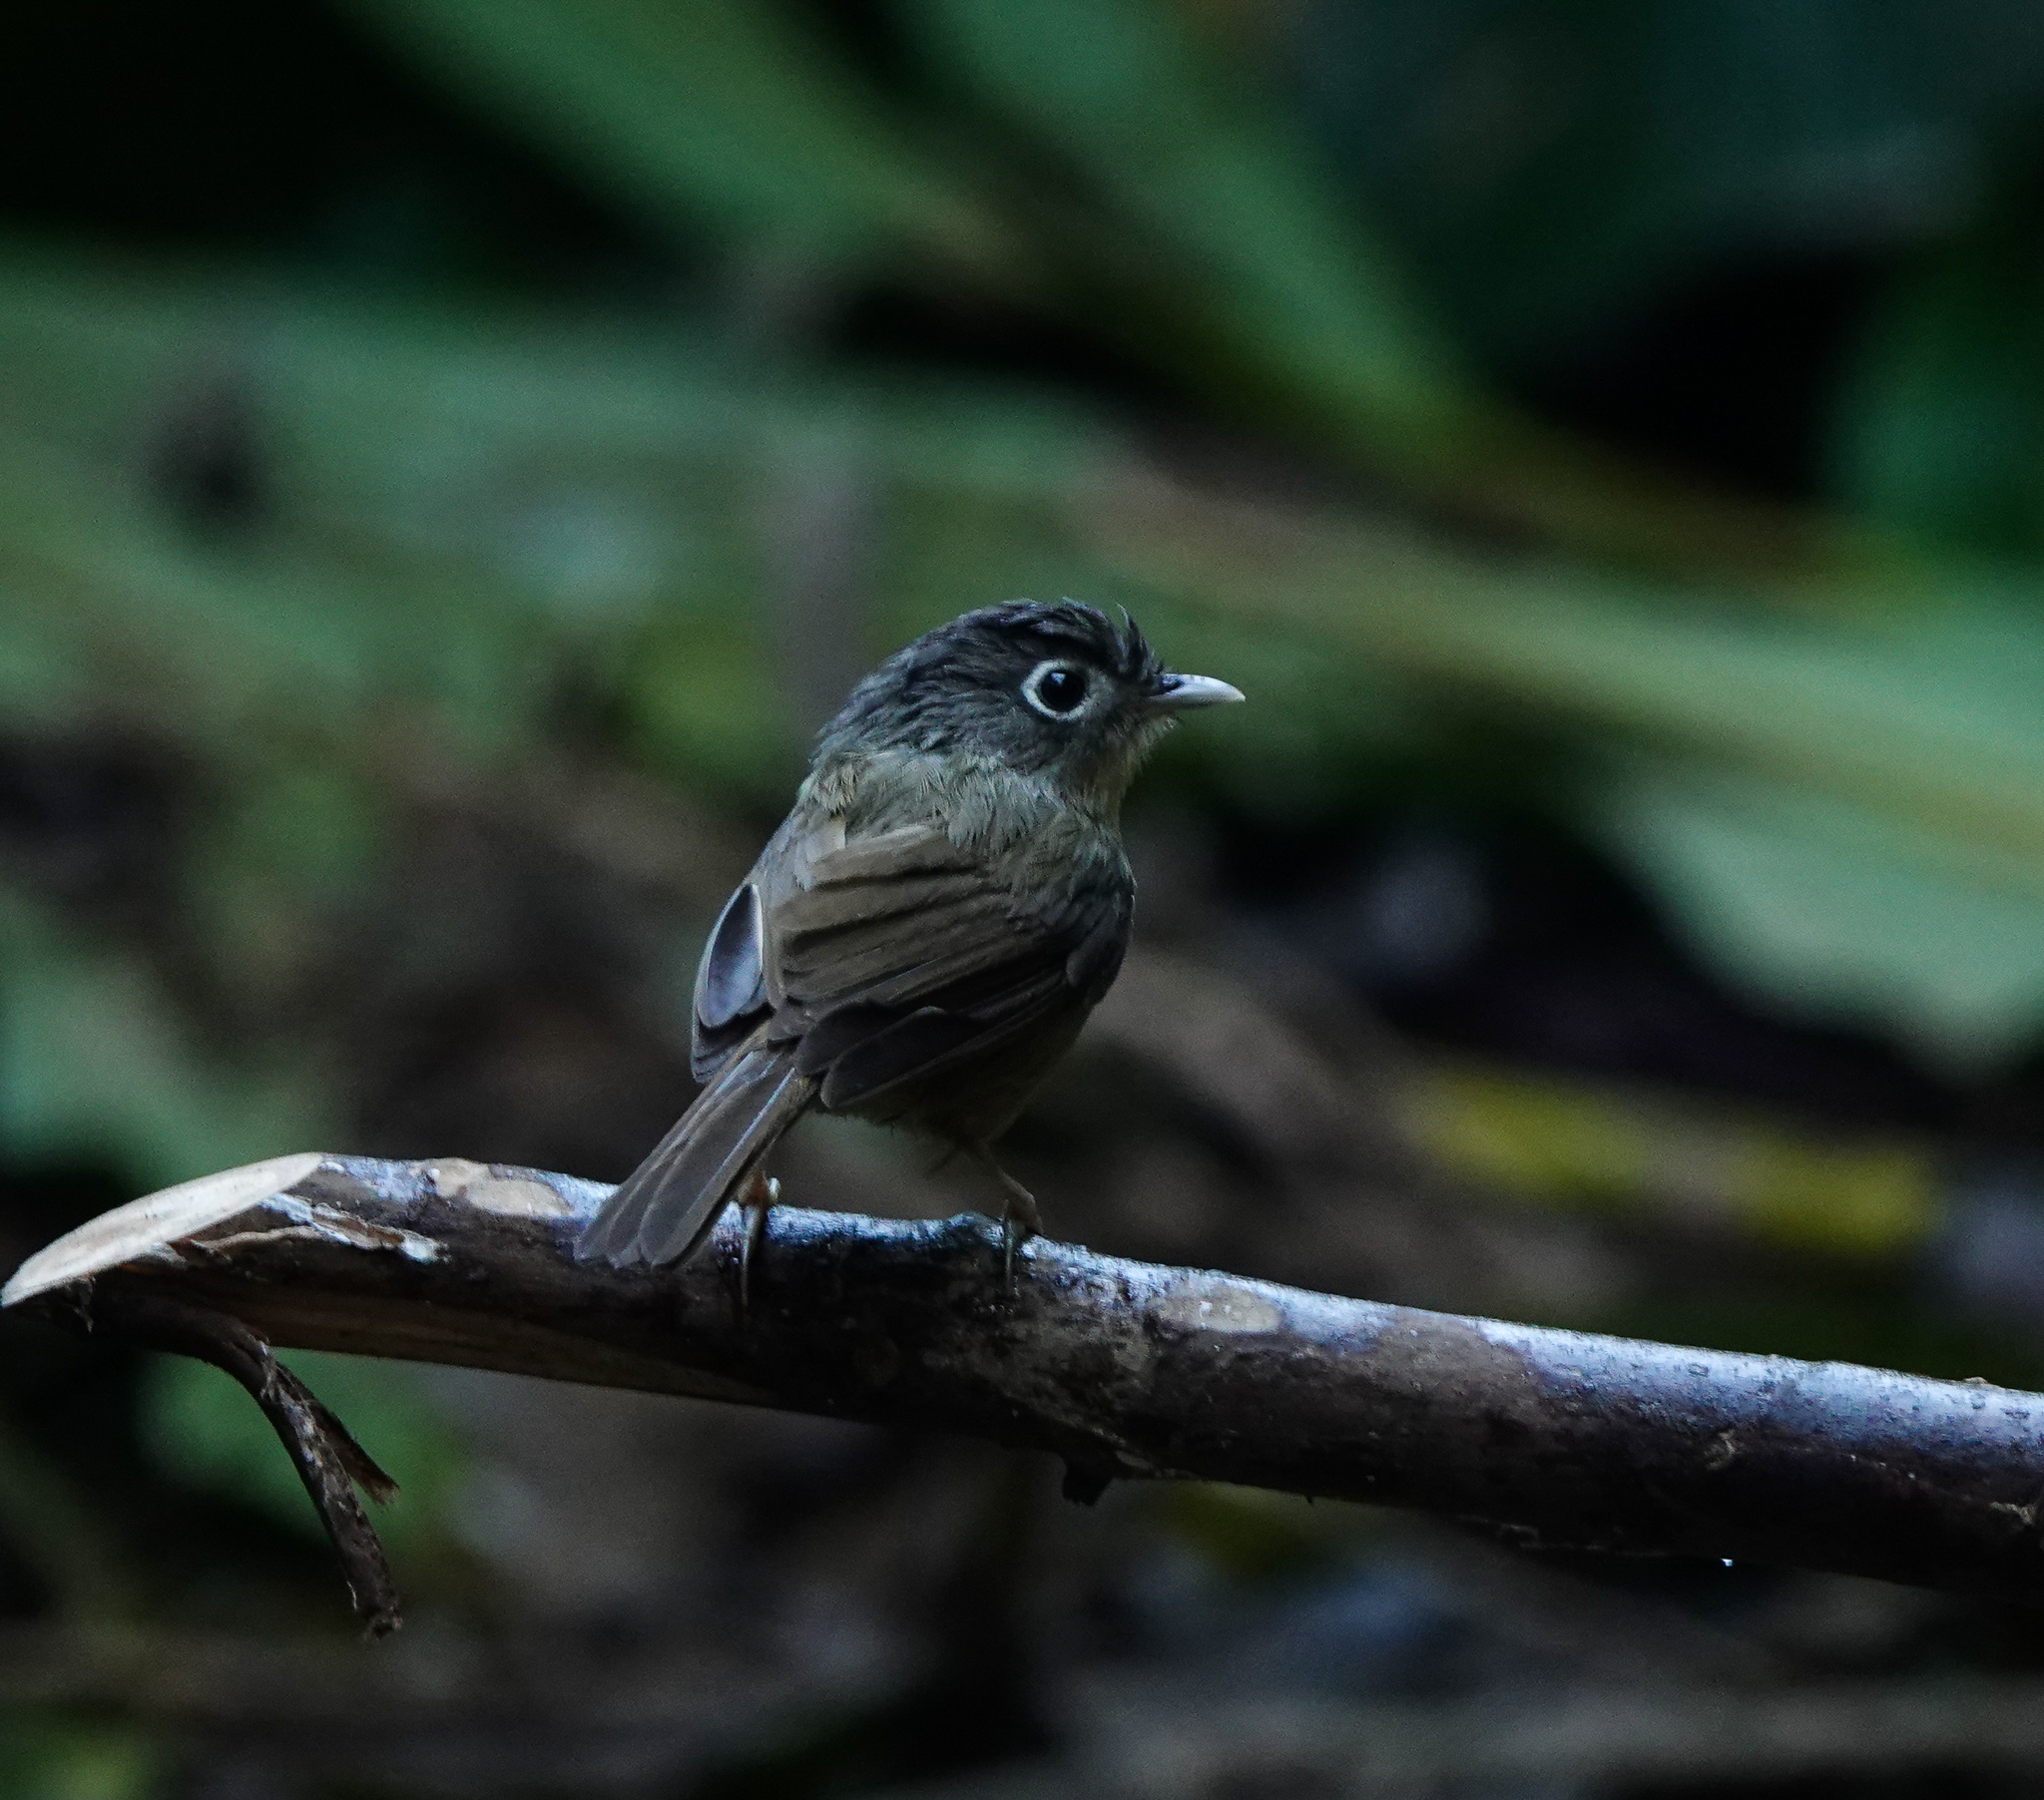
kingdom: Animalia
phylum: Chordata
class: Aves
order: Passeriformes
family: Pellorneidae
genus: Alcippe
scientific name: Alcippe nipalensis
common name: Nepal fulvetta
